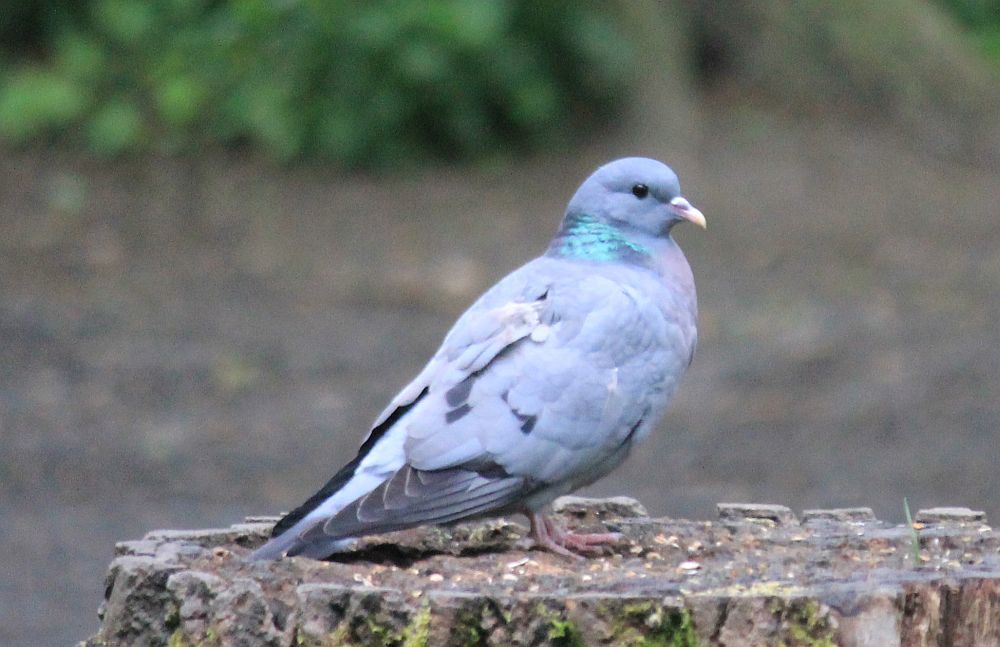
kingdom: Animalia
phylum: Chordata
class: Aves
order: Columbiformes
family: Columbidae
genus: Columba
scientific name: Columba oenas
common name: Stock dove
